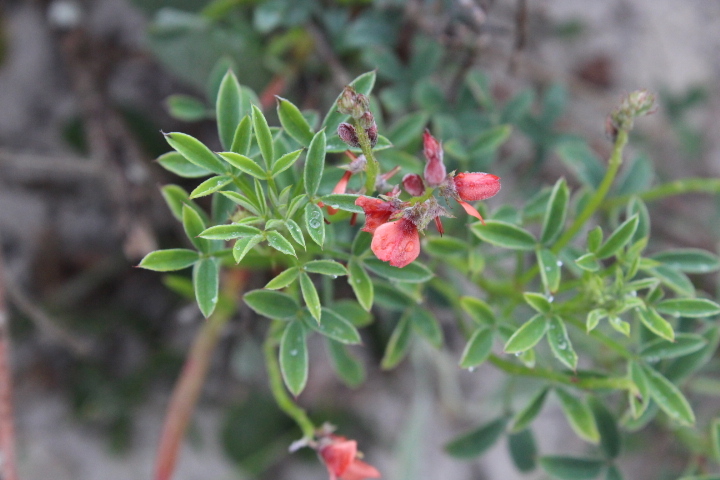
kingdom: Plantae
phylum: Tracheophyta
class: Magnoliopsida
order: Fabales
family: Fabaceae
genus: Indigofera
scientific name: Indigofera heterophylla
